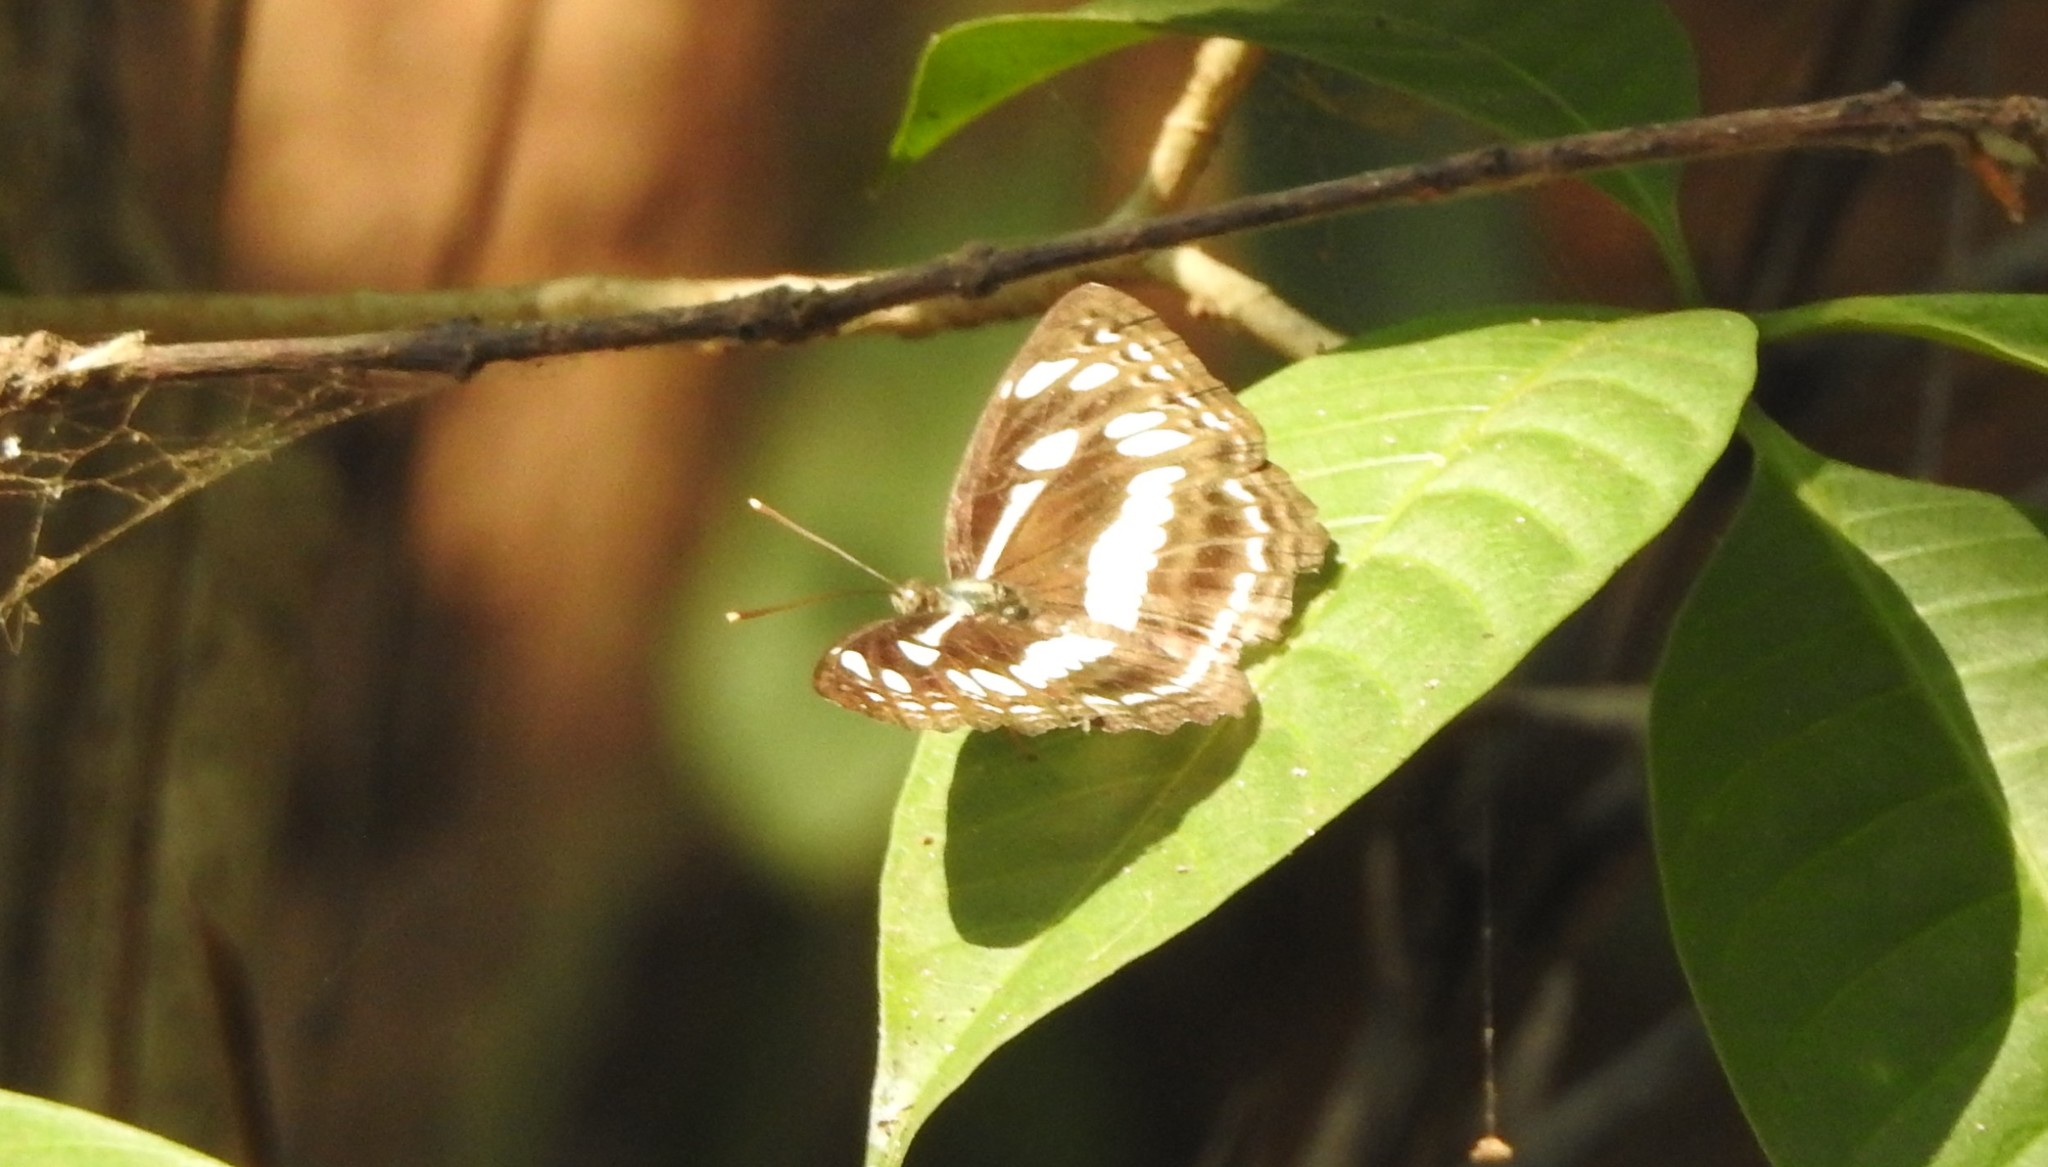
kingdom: Animalia
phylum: Arthropoda
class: Insecta
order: Lepidoptera
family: Nymphalidae
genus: Neptis
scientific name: Neptis jumbah
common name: Chestnut-streaked sailer
